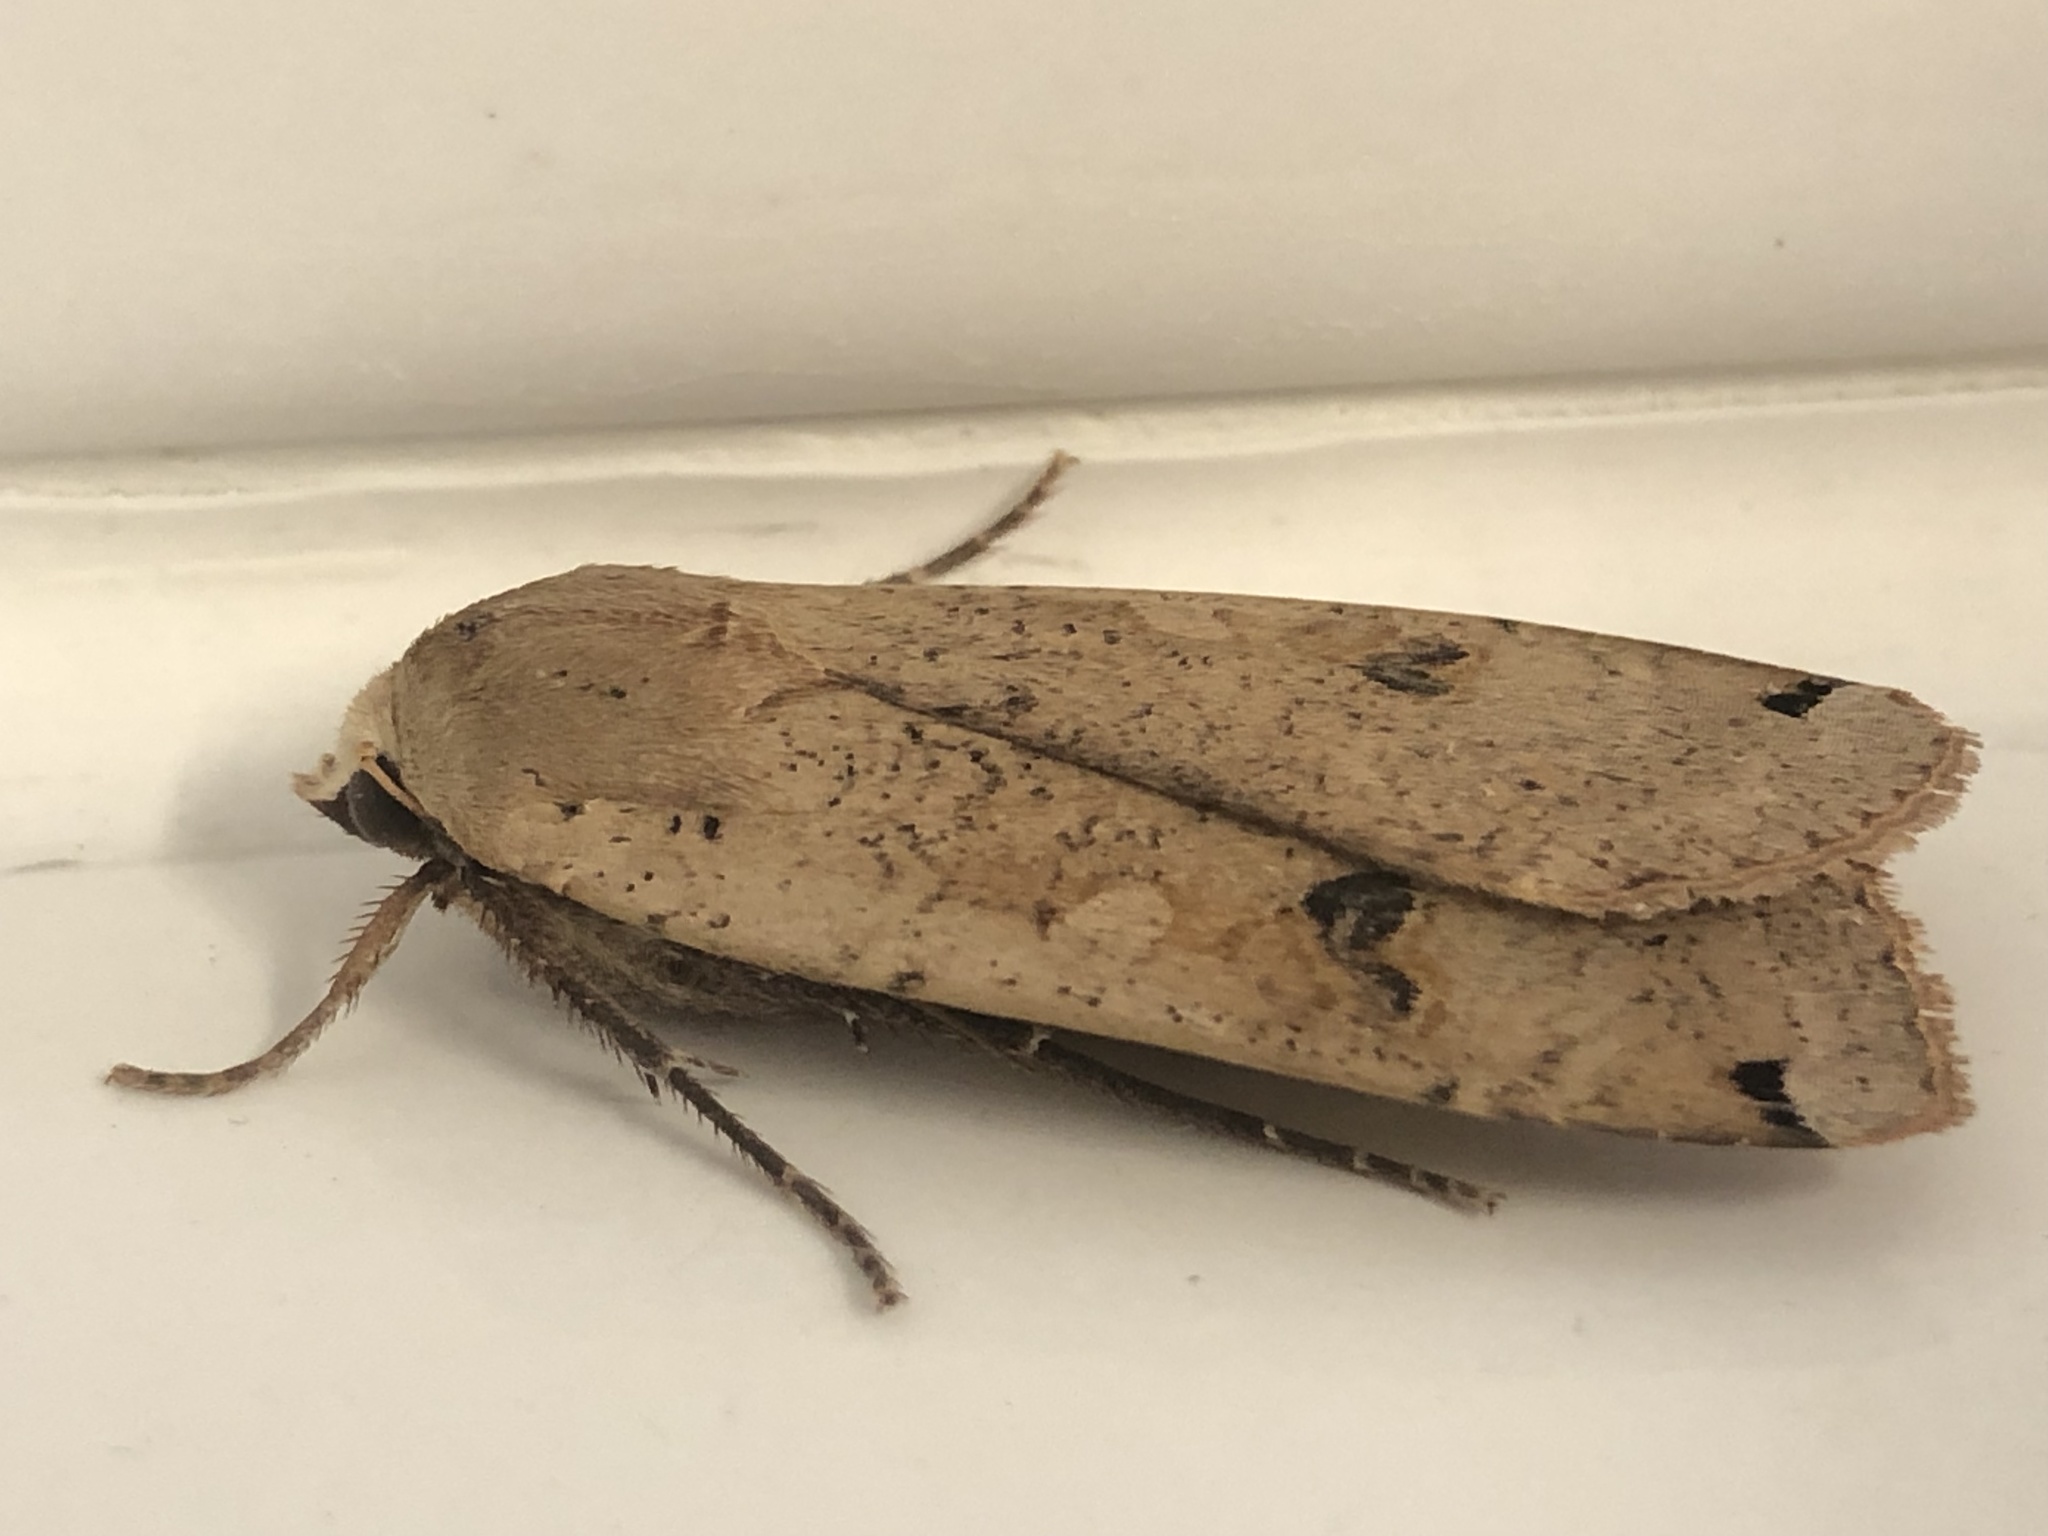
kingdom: Animalia
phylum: Arthropoda
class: Insecta
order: Lepidoptera
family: Noctuidae
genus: Noctua
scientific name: Noctua pronuba
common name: Large yellow underwing
